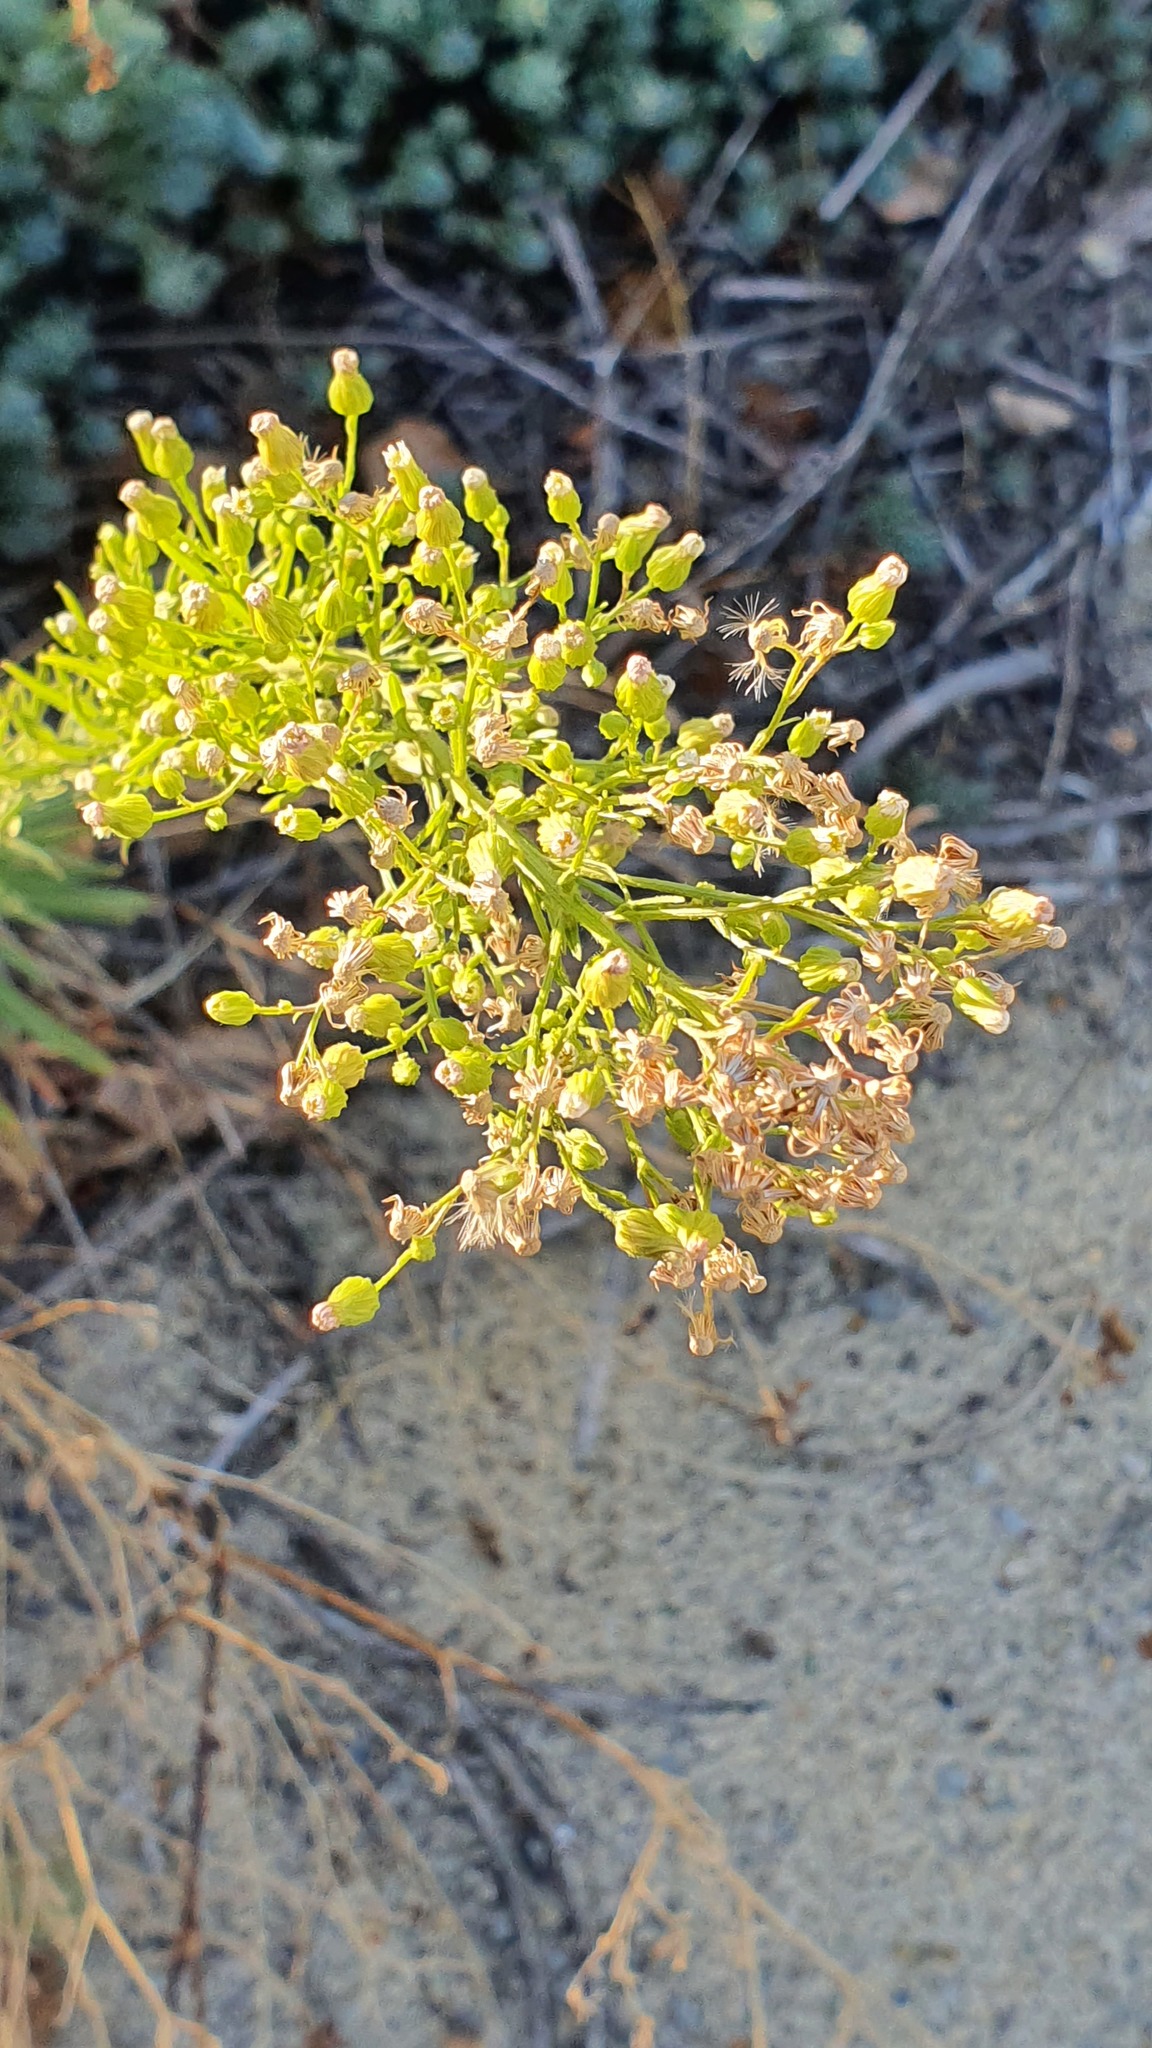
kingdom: Plantae
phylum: Tracheophyta
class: Magnoliopsida
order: Asterales
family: Asteraceae
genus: Erigeron
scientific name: Erigeron canadensis
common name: Canadian fleabane
